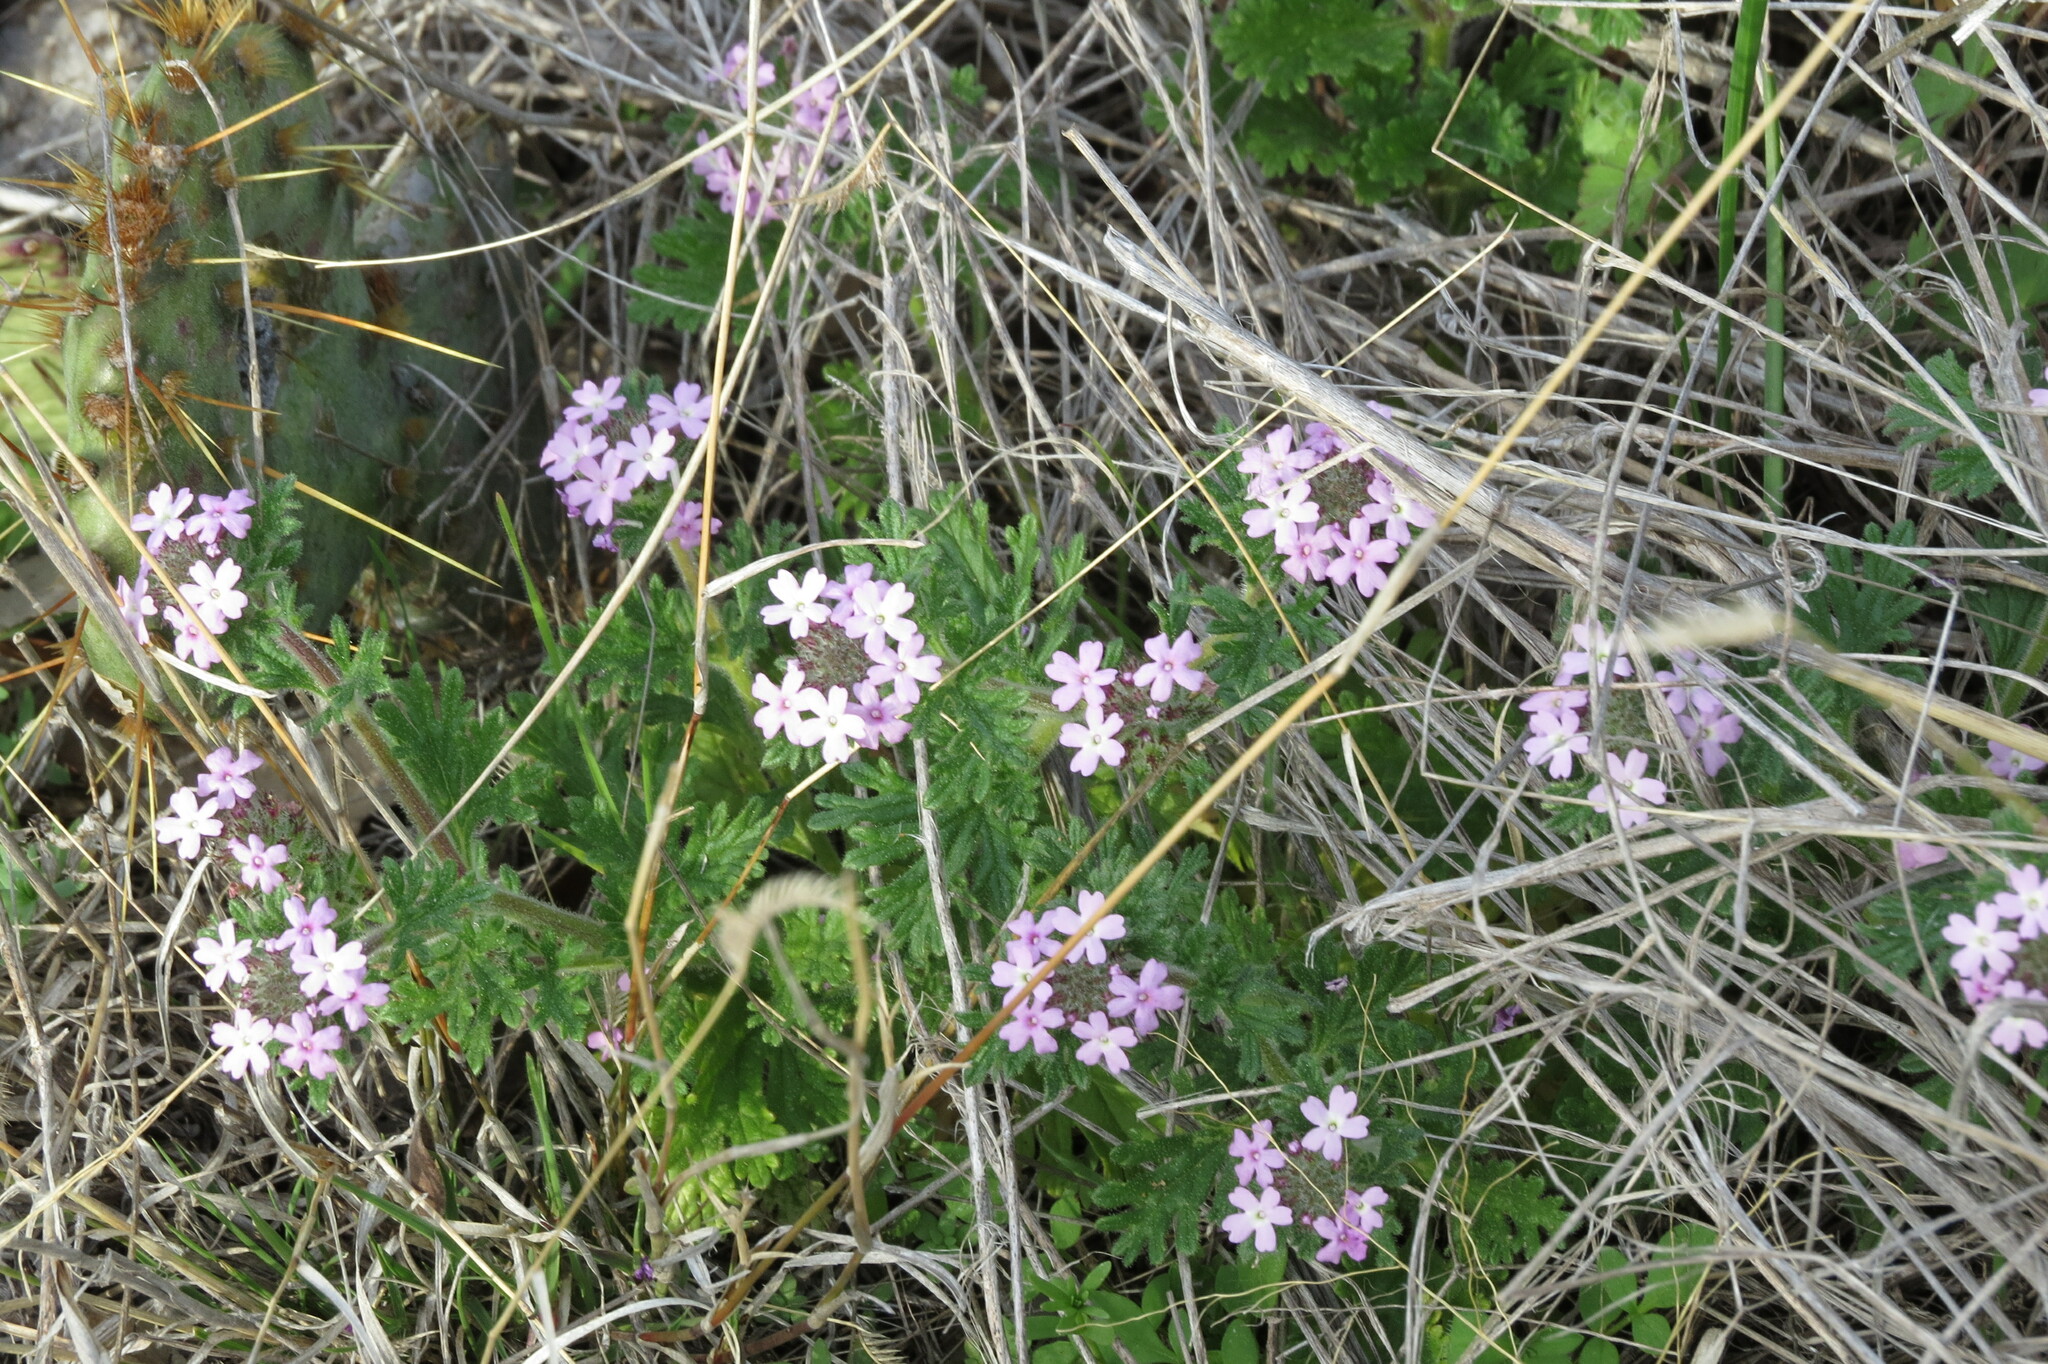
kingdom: Plantae
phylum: Tracheophyta
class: Magnoliopsida
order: Lamiales
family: Verbenaceae
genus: Verbena
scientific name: Verbena pumila
